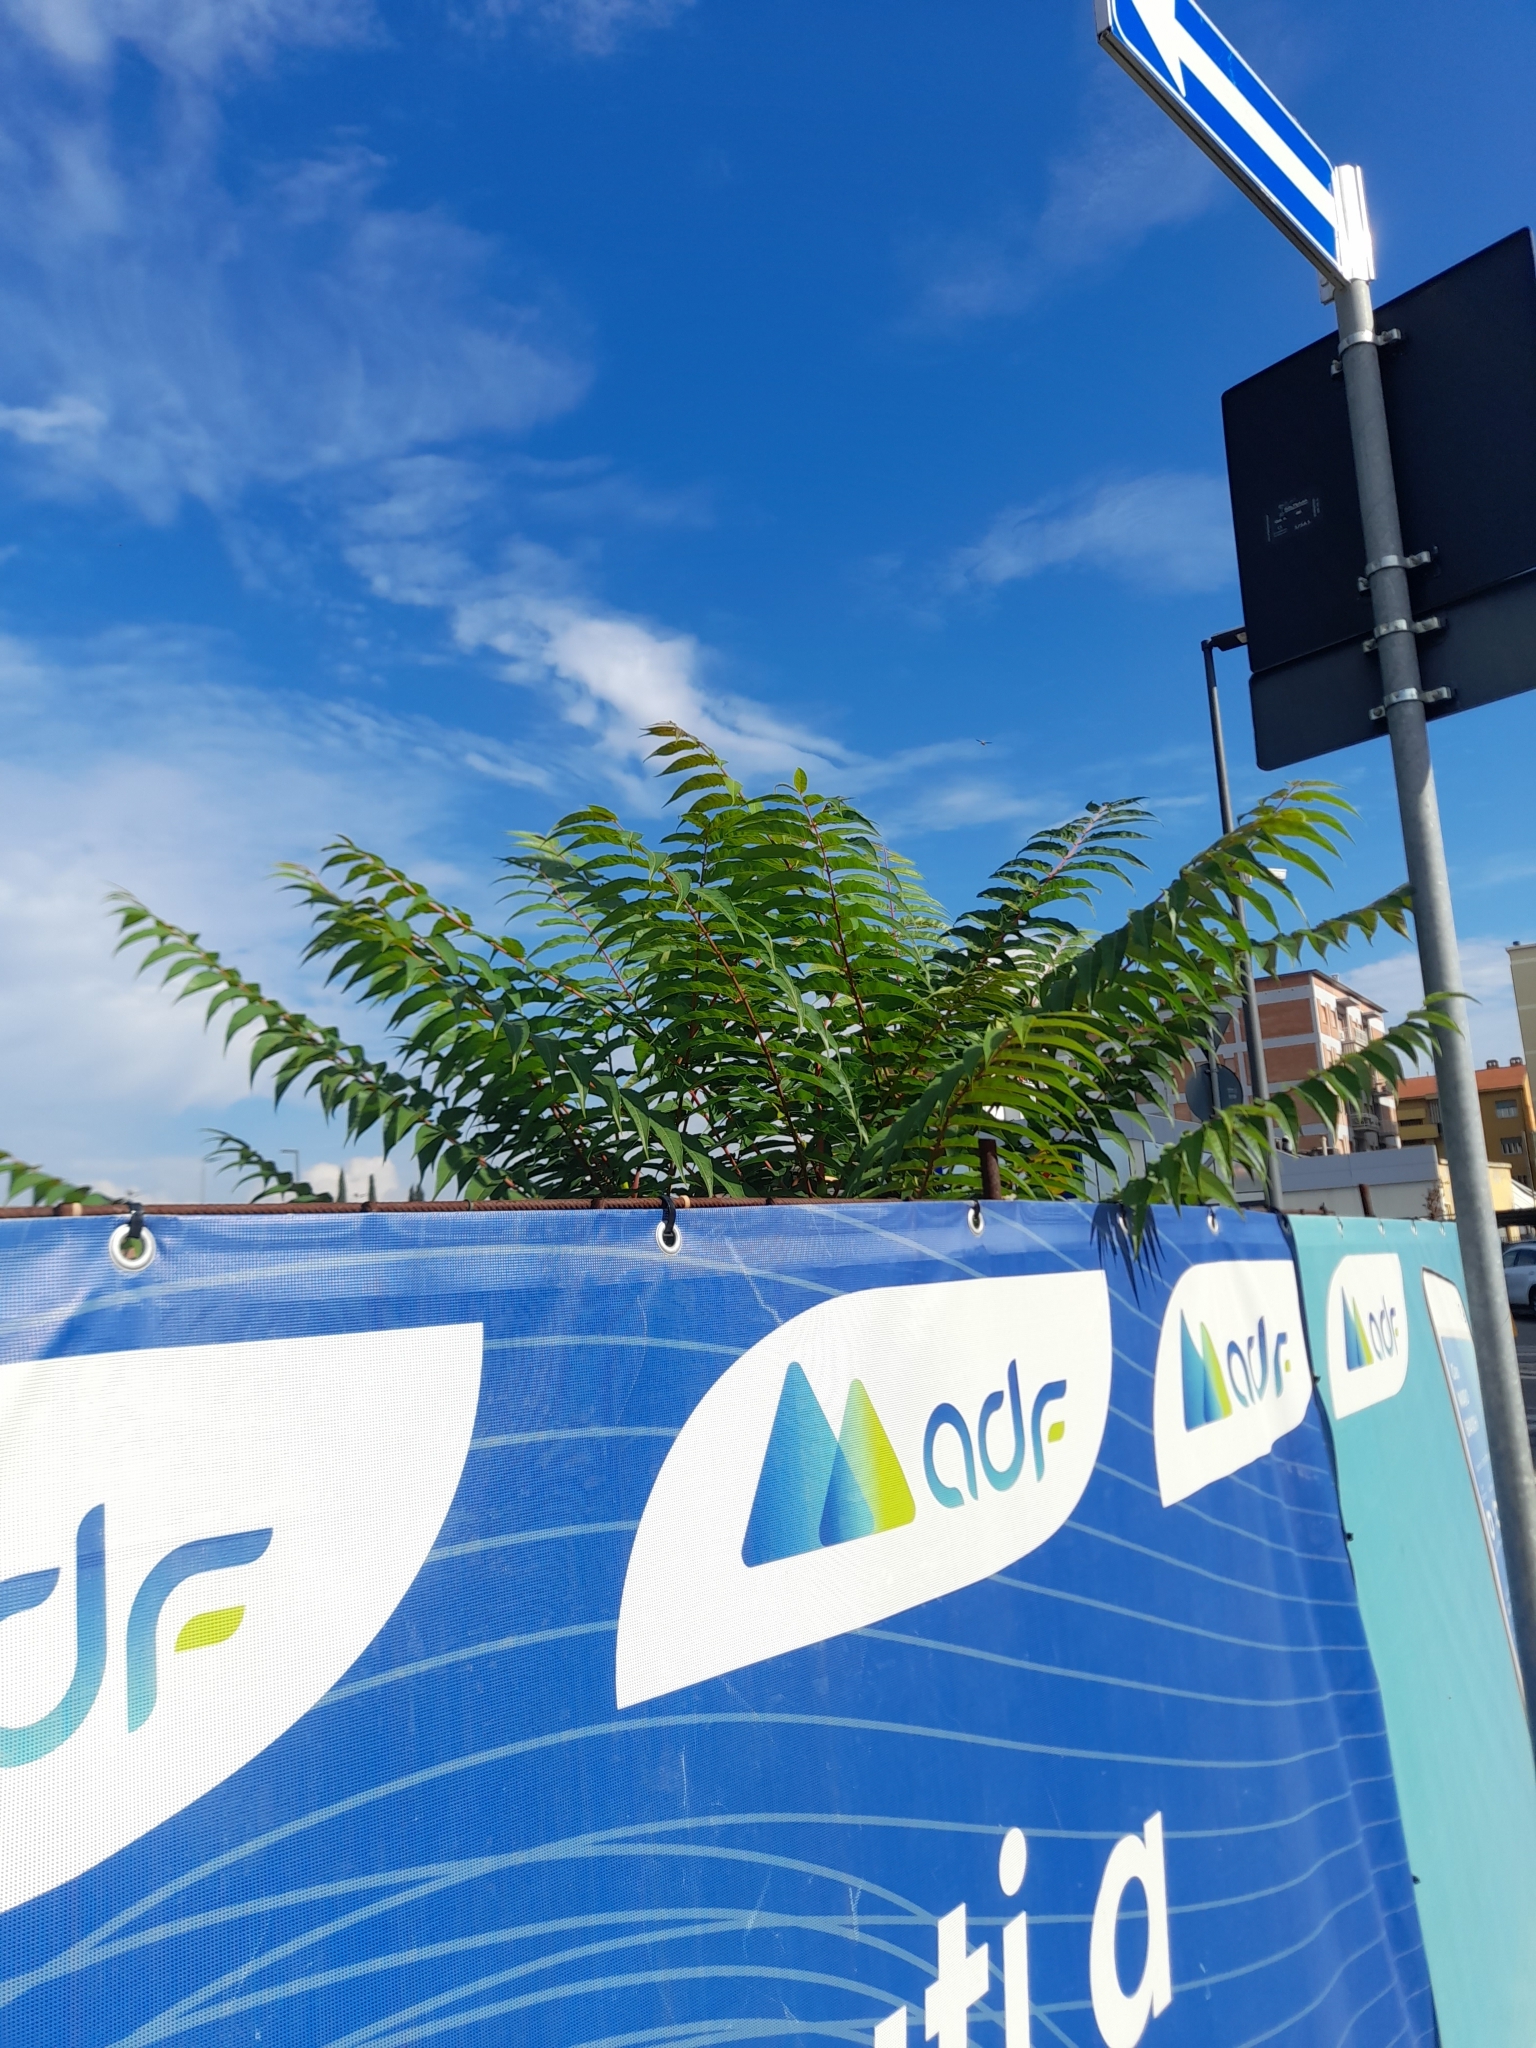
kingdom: Plantae
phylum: Tracheophyta
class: Magnoliopsida
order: Sapindales
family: Simaroubaceae
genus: Ailanthus
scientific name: Ailanthus altissima
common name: Tree-of-heaven
